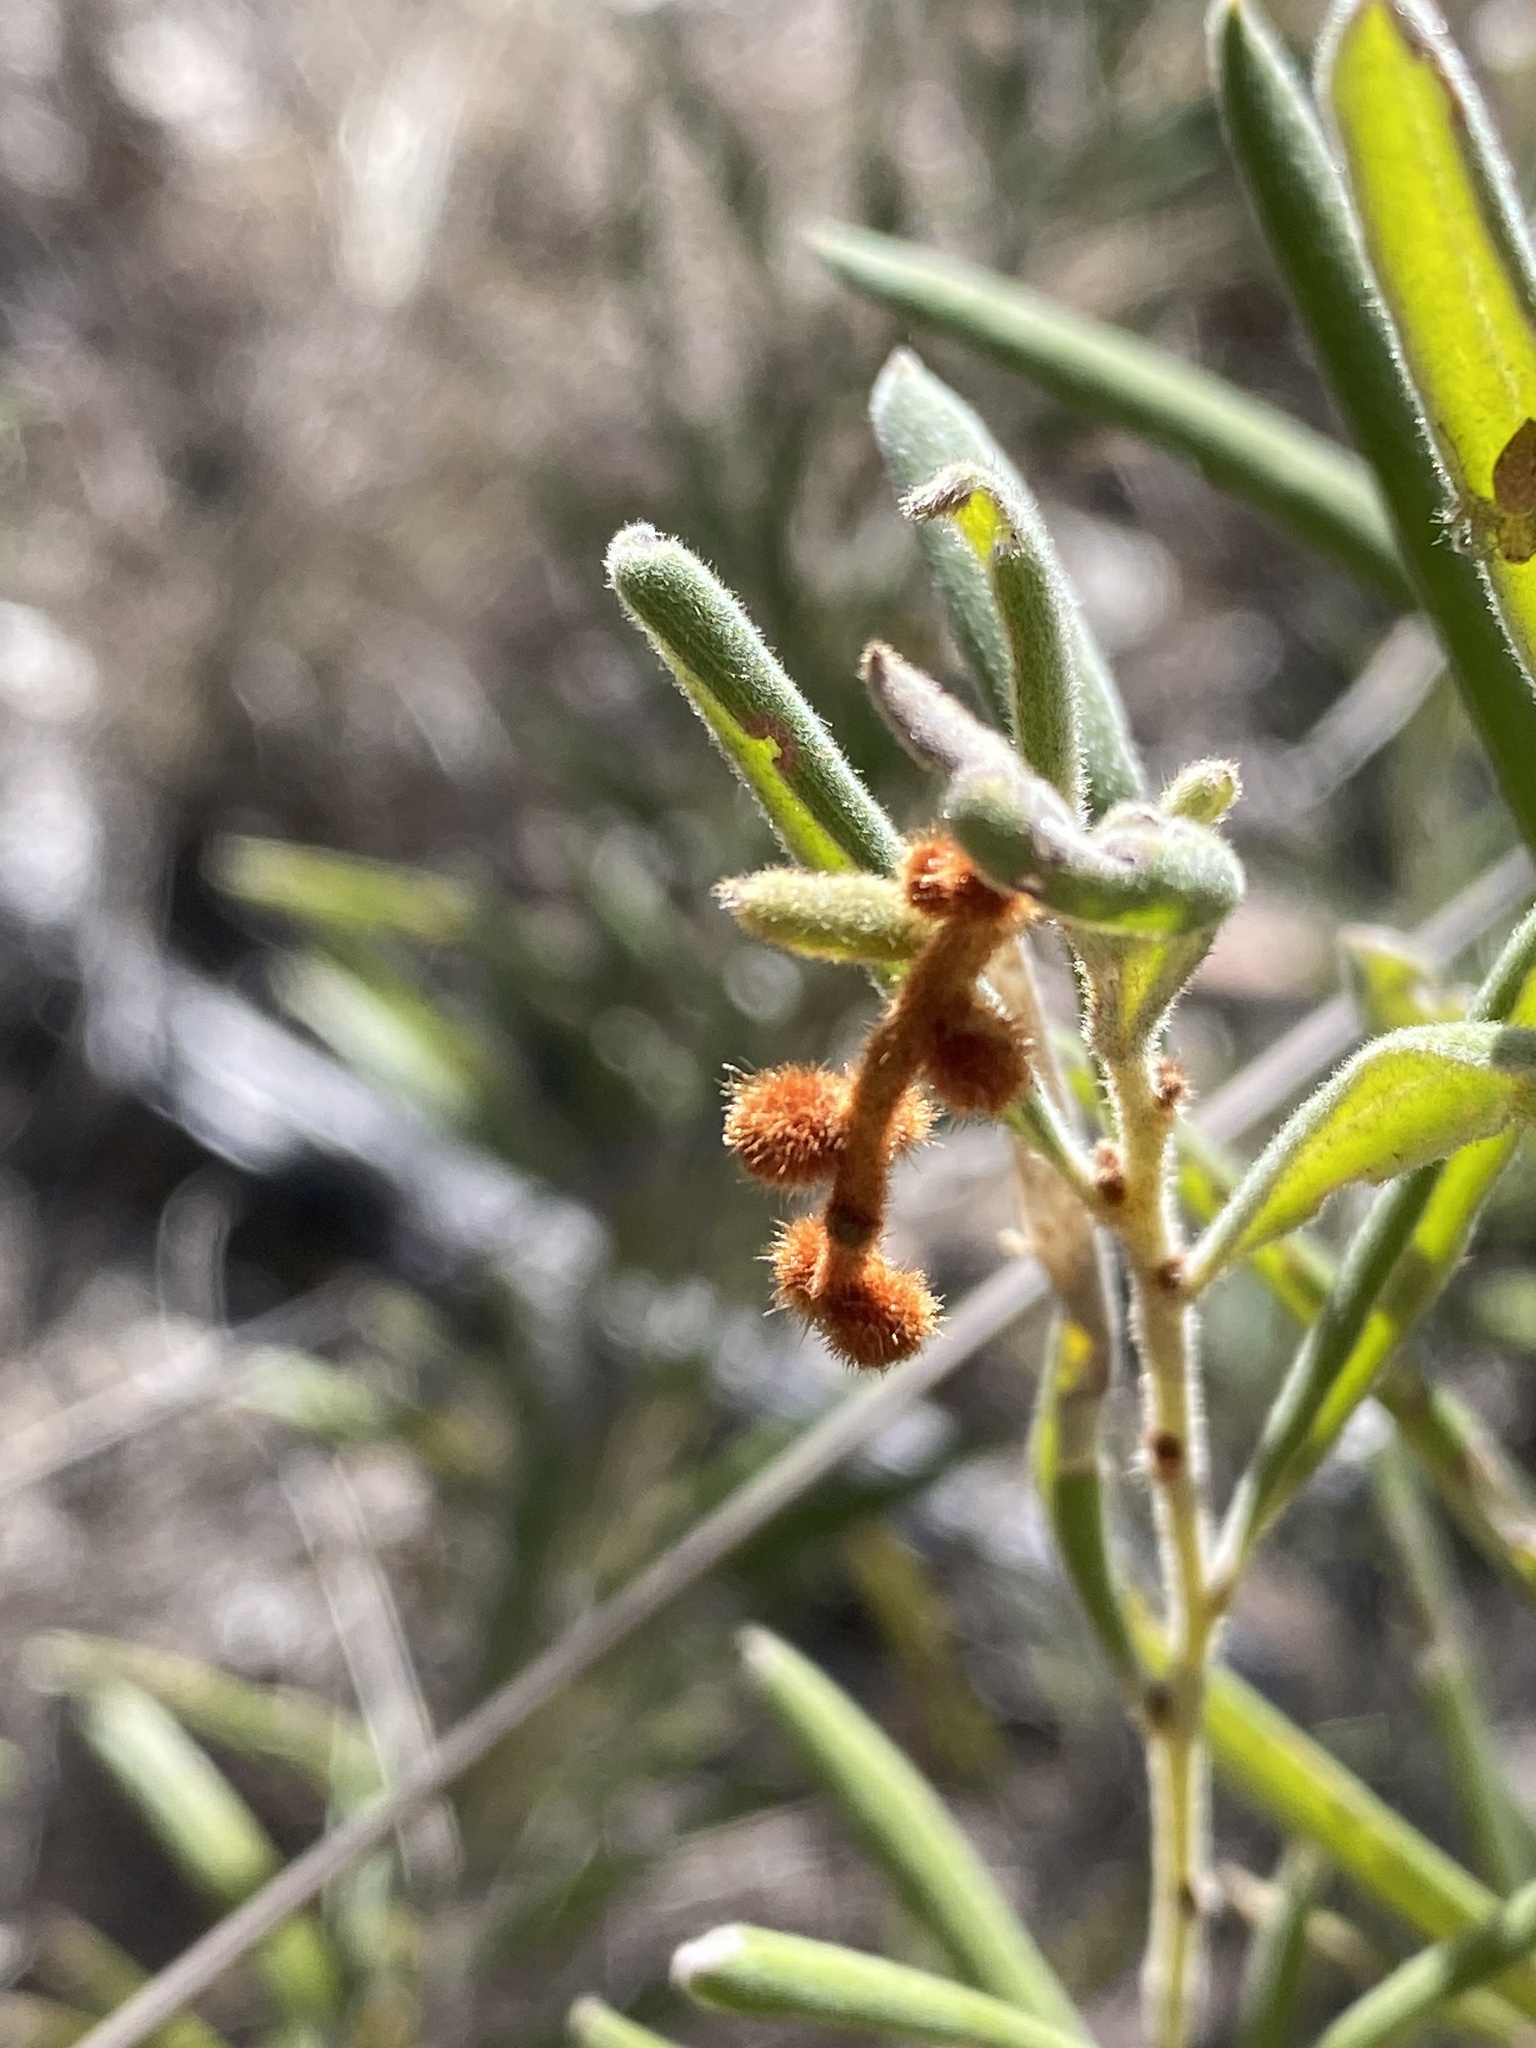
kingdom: Plantae
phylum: Tracheophyta
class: Magnoliopsida
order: Proteales
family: Proteaceae
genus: Grevillea
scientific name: Grevillea floribunda
